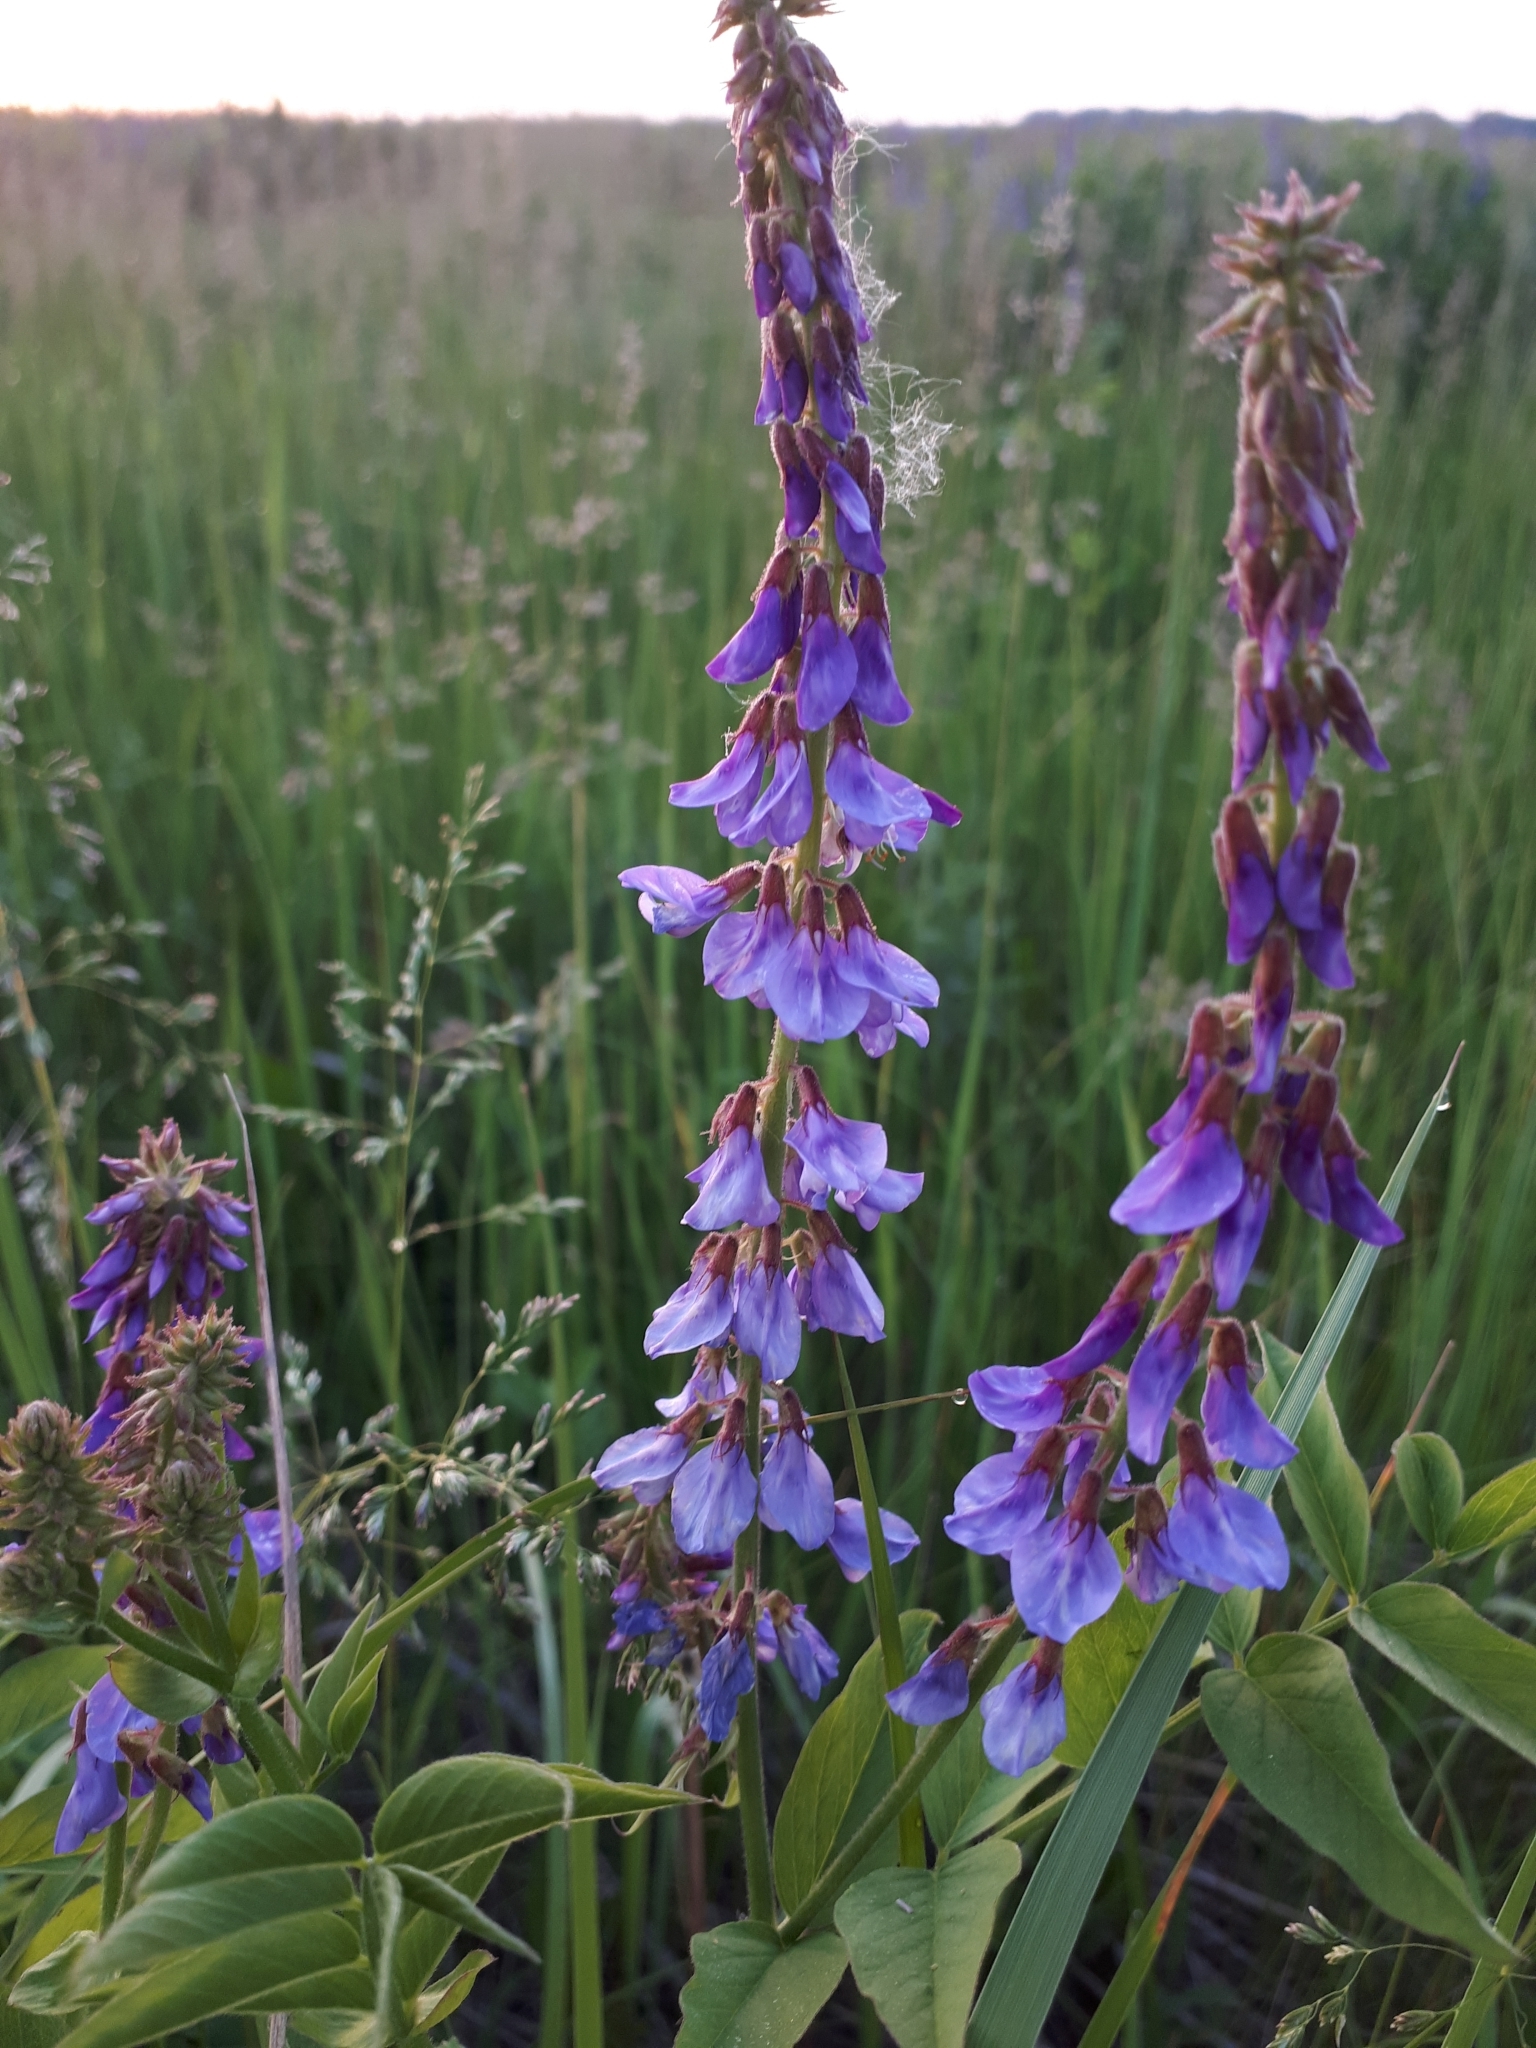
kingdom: Plantae
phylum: Tracheophyta
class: Magnoliopsida
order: Fabales
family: Fabaceae
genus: Galega
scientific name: Galega orientalis
